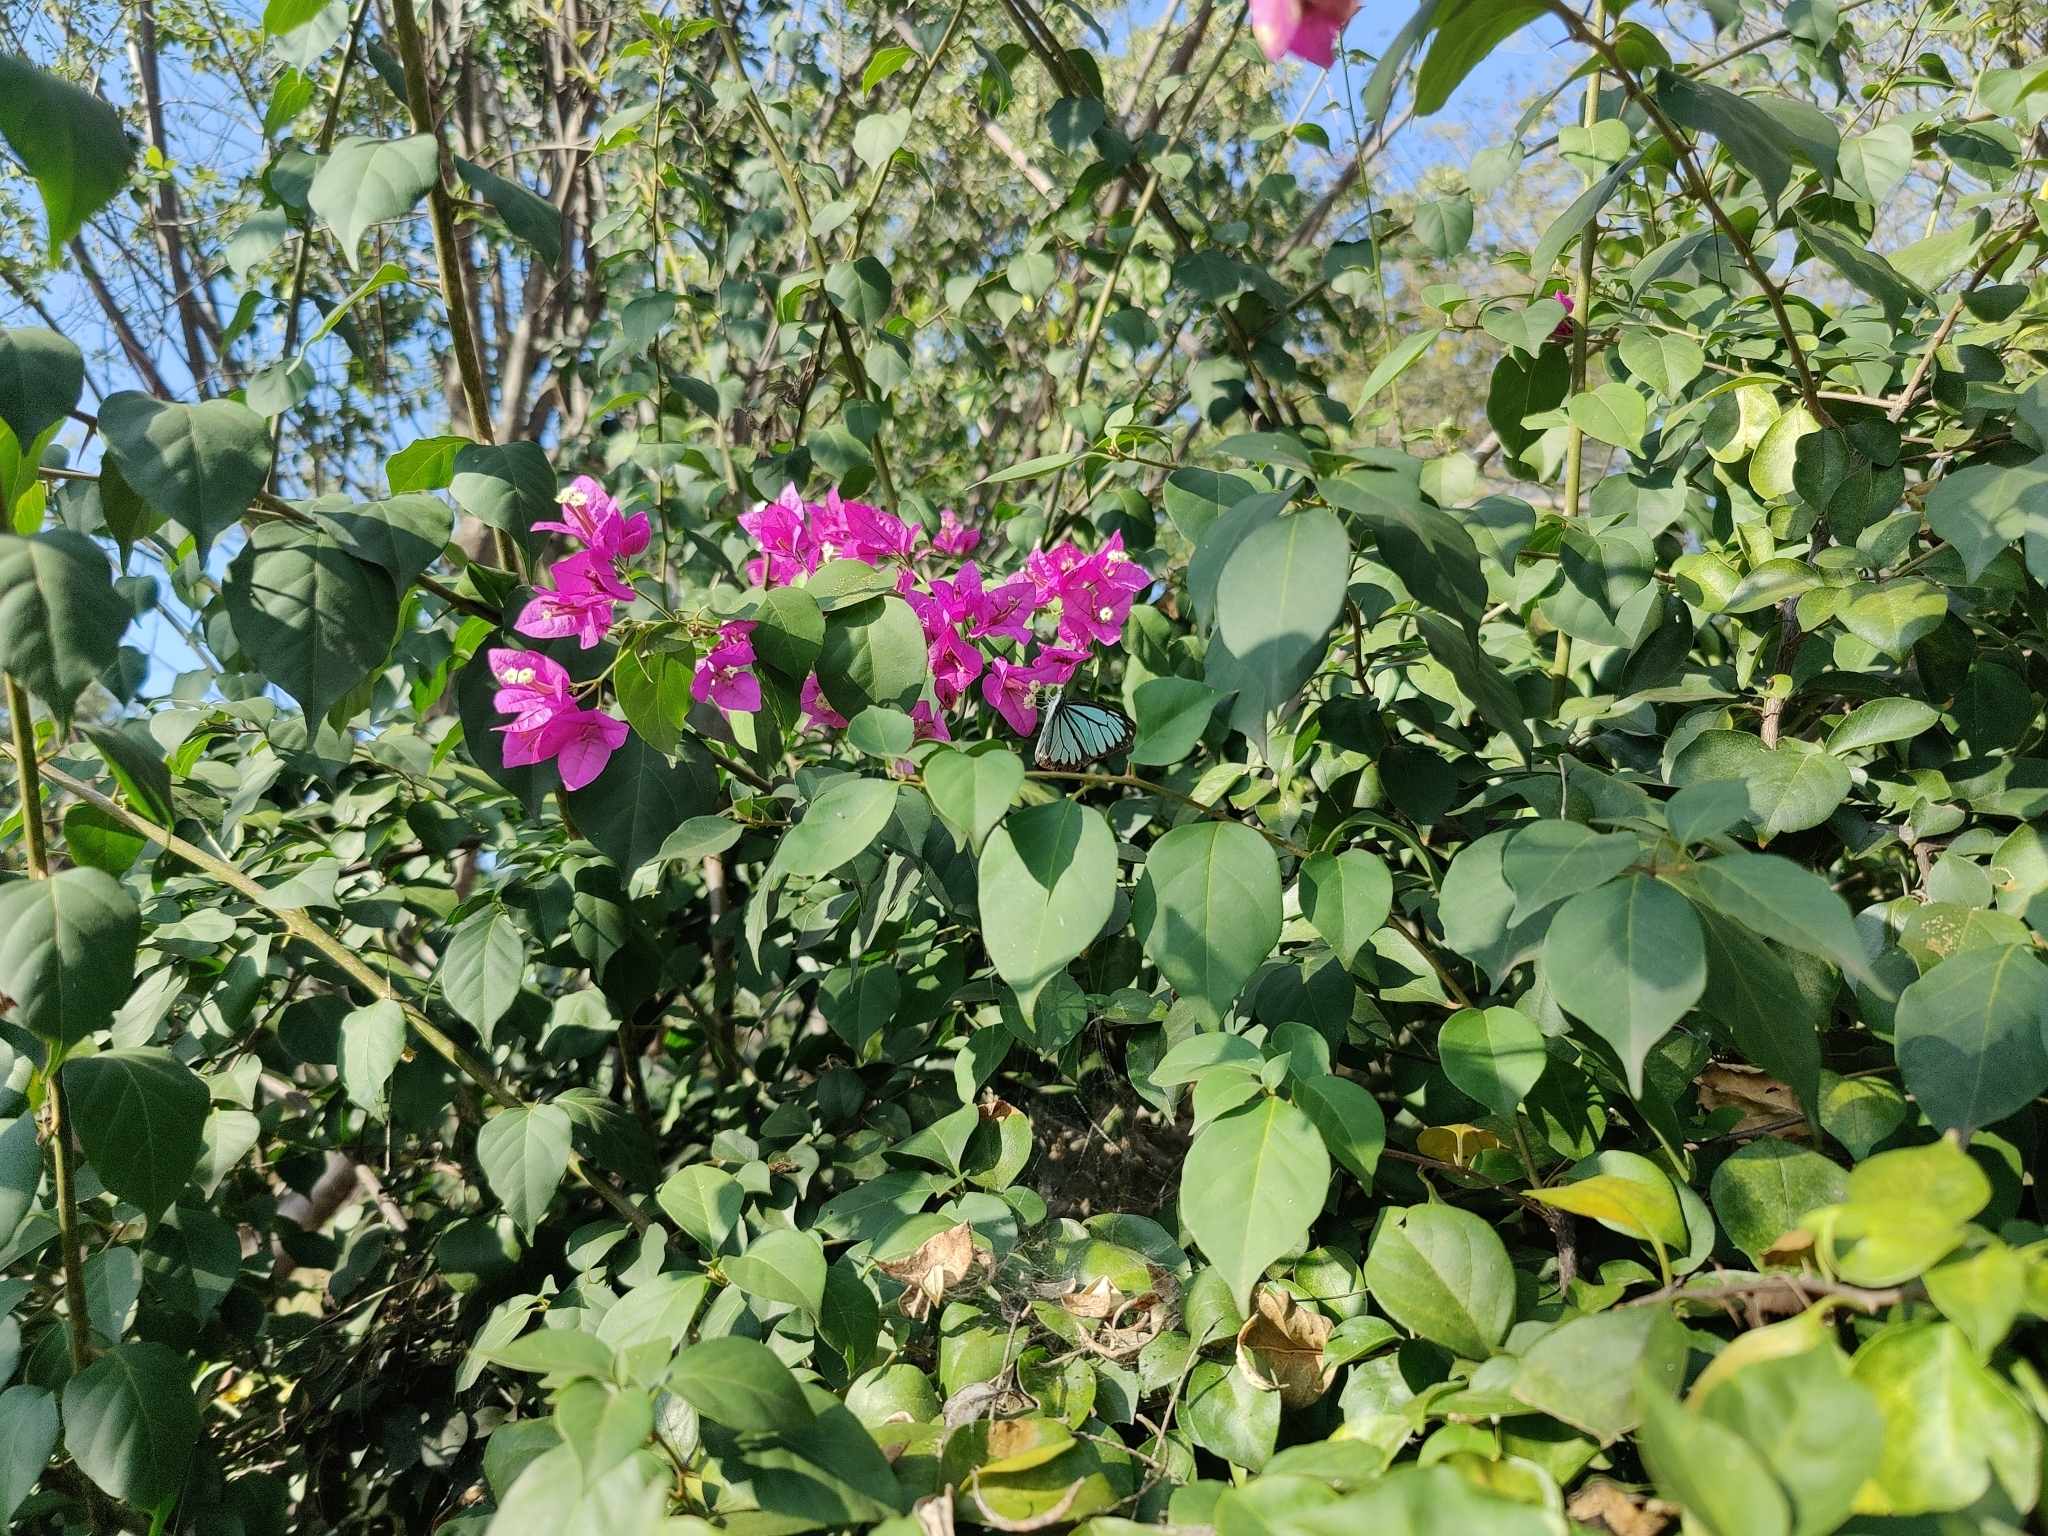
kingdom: Animalia
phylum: Arthropoda
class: Insecta
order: Lepidoptera
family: Pieridae
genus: Pareronia
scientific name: Pareronia hippia
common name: Indian wanderer
